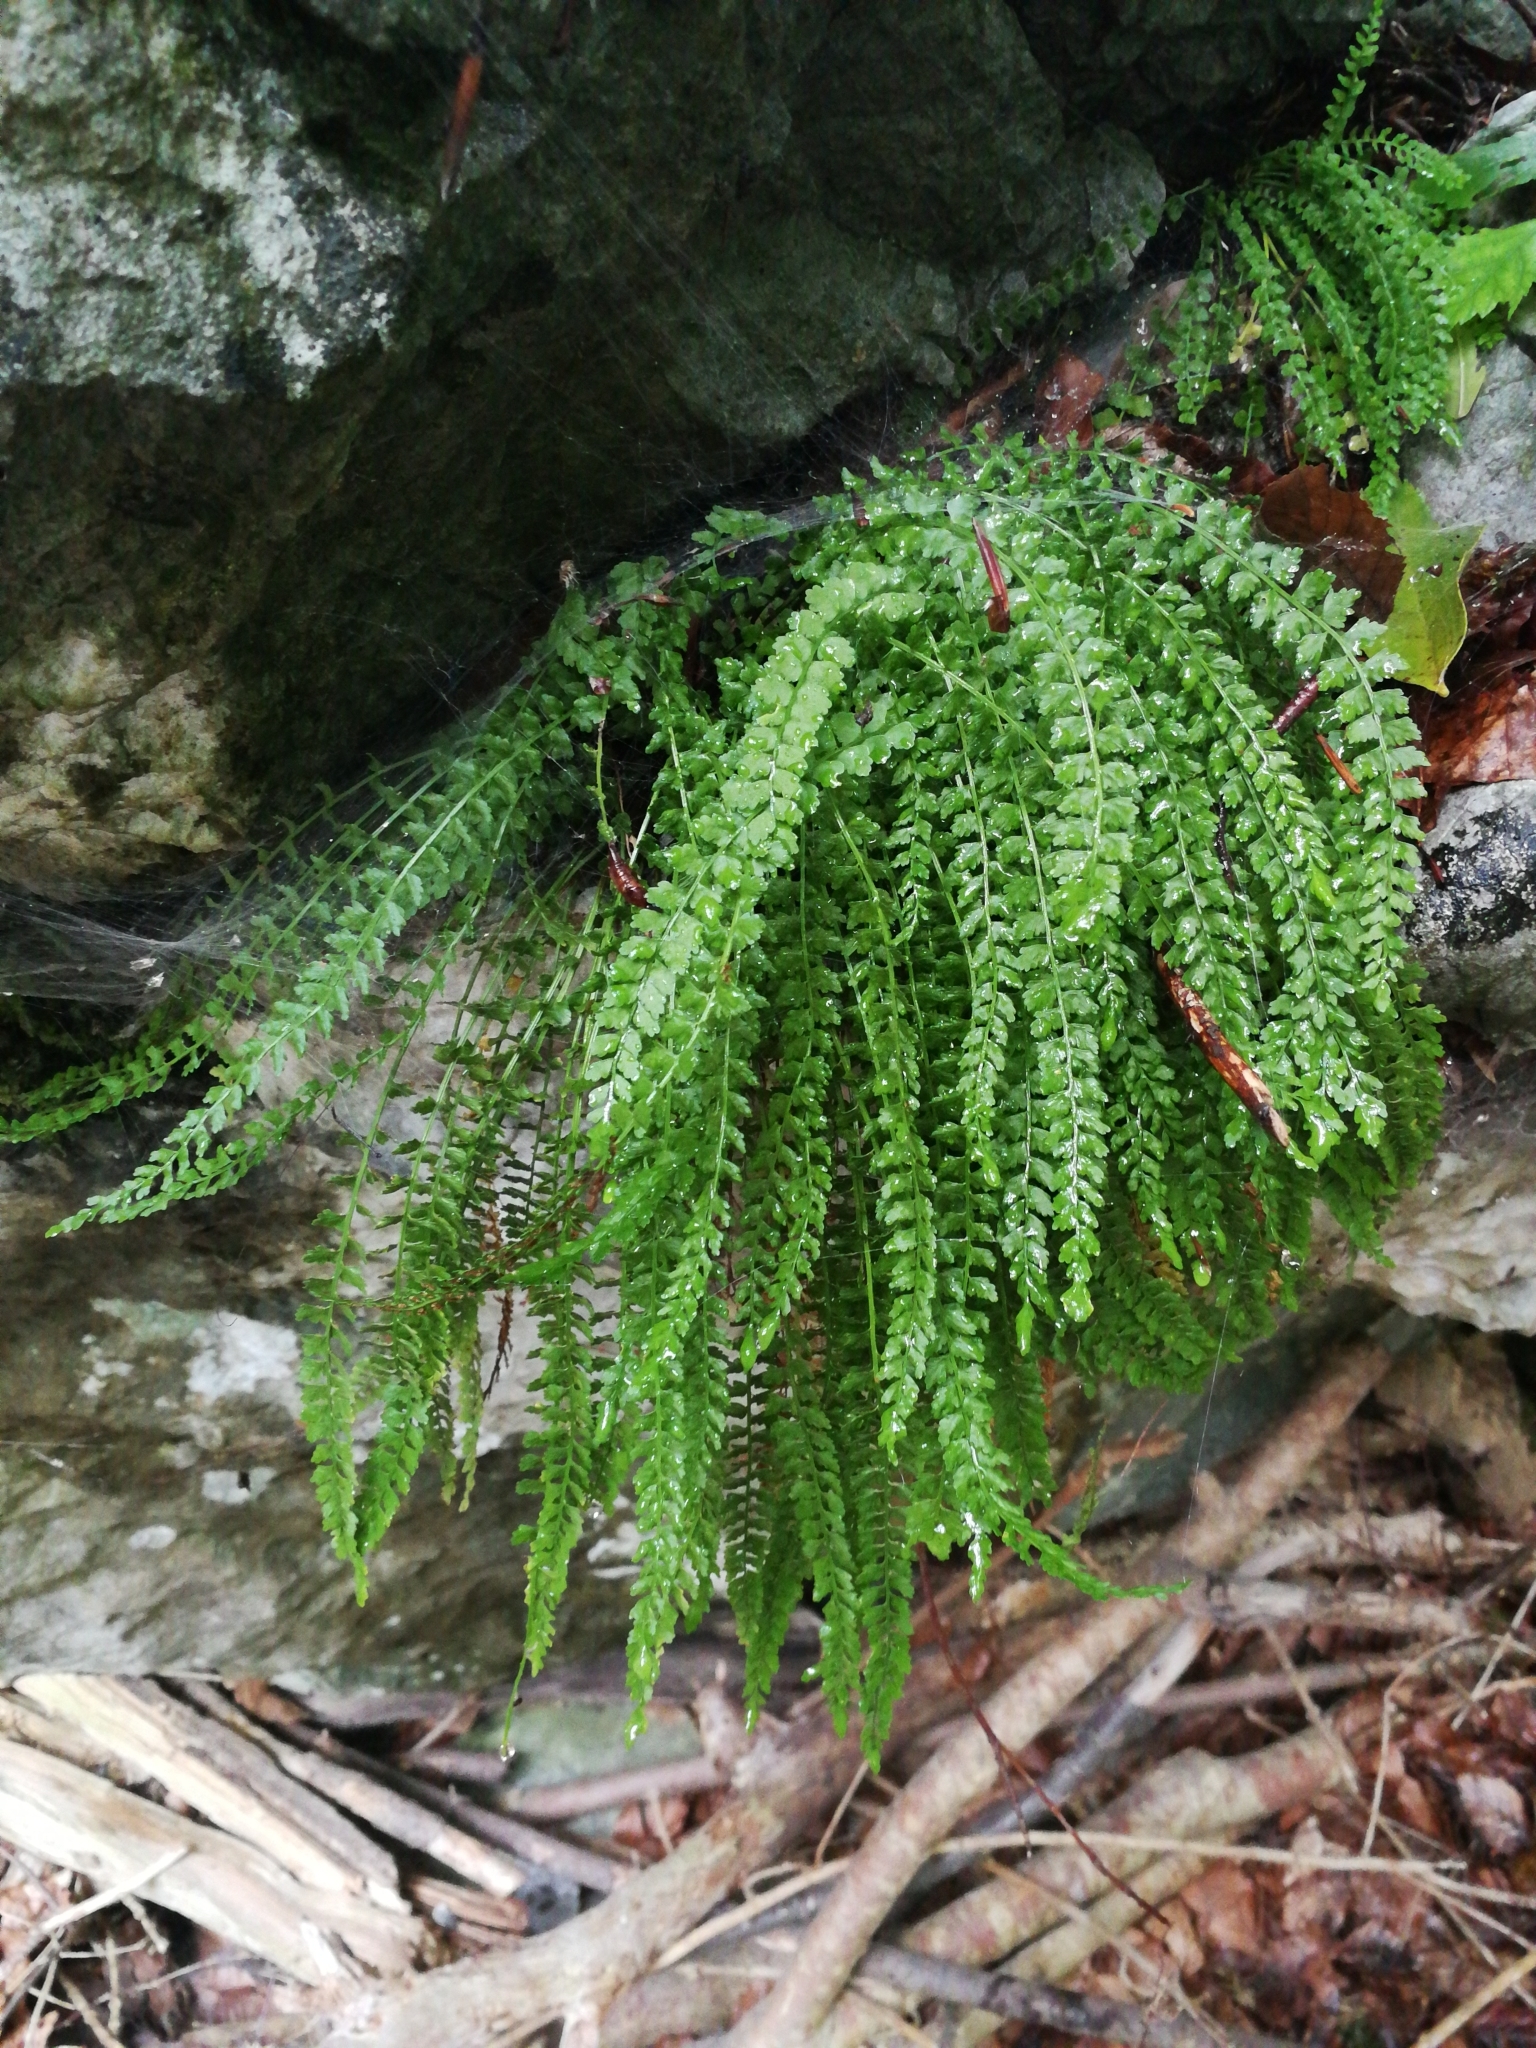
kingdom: Plantae
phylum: Tracheophyta
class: Polypodiopsida
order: Polypodiales
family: Aspleniaceae
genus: Asplenium
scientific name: Asplenium viride
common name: Green spleenwort
